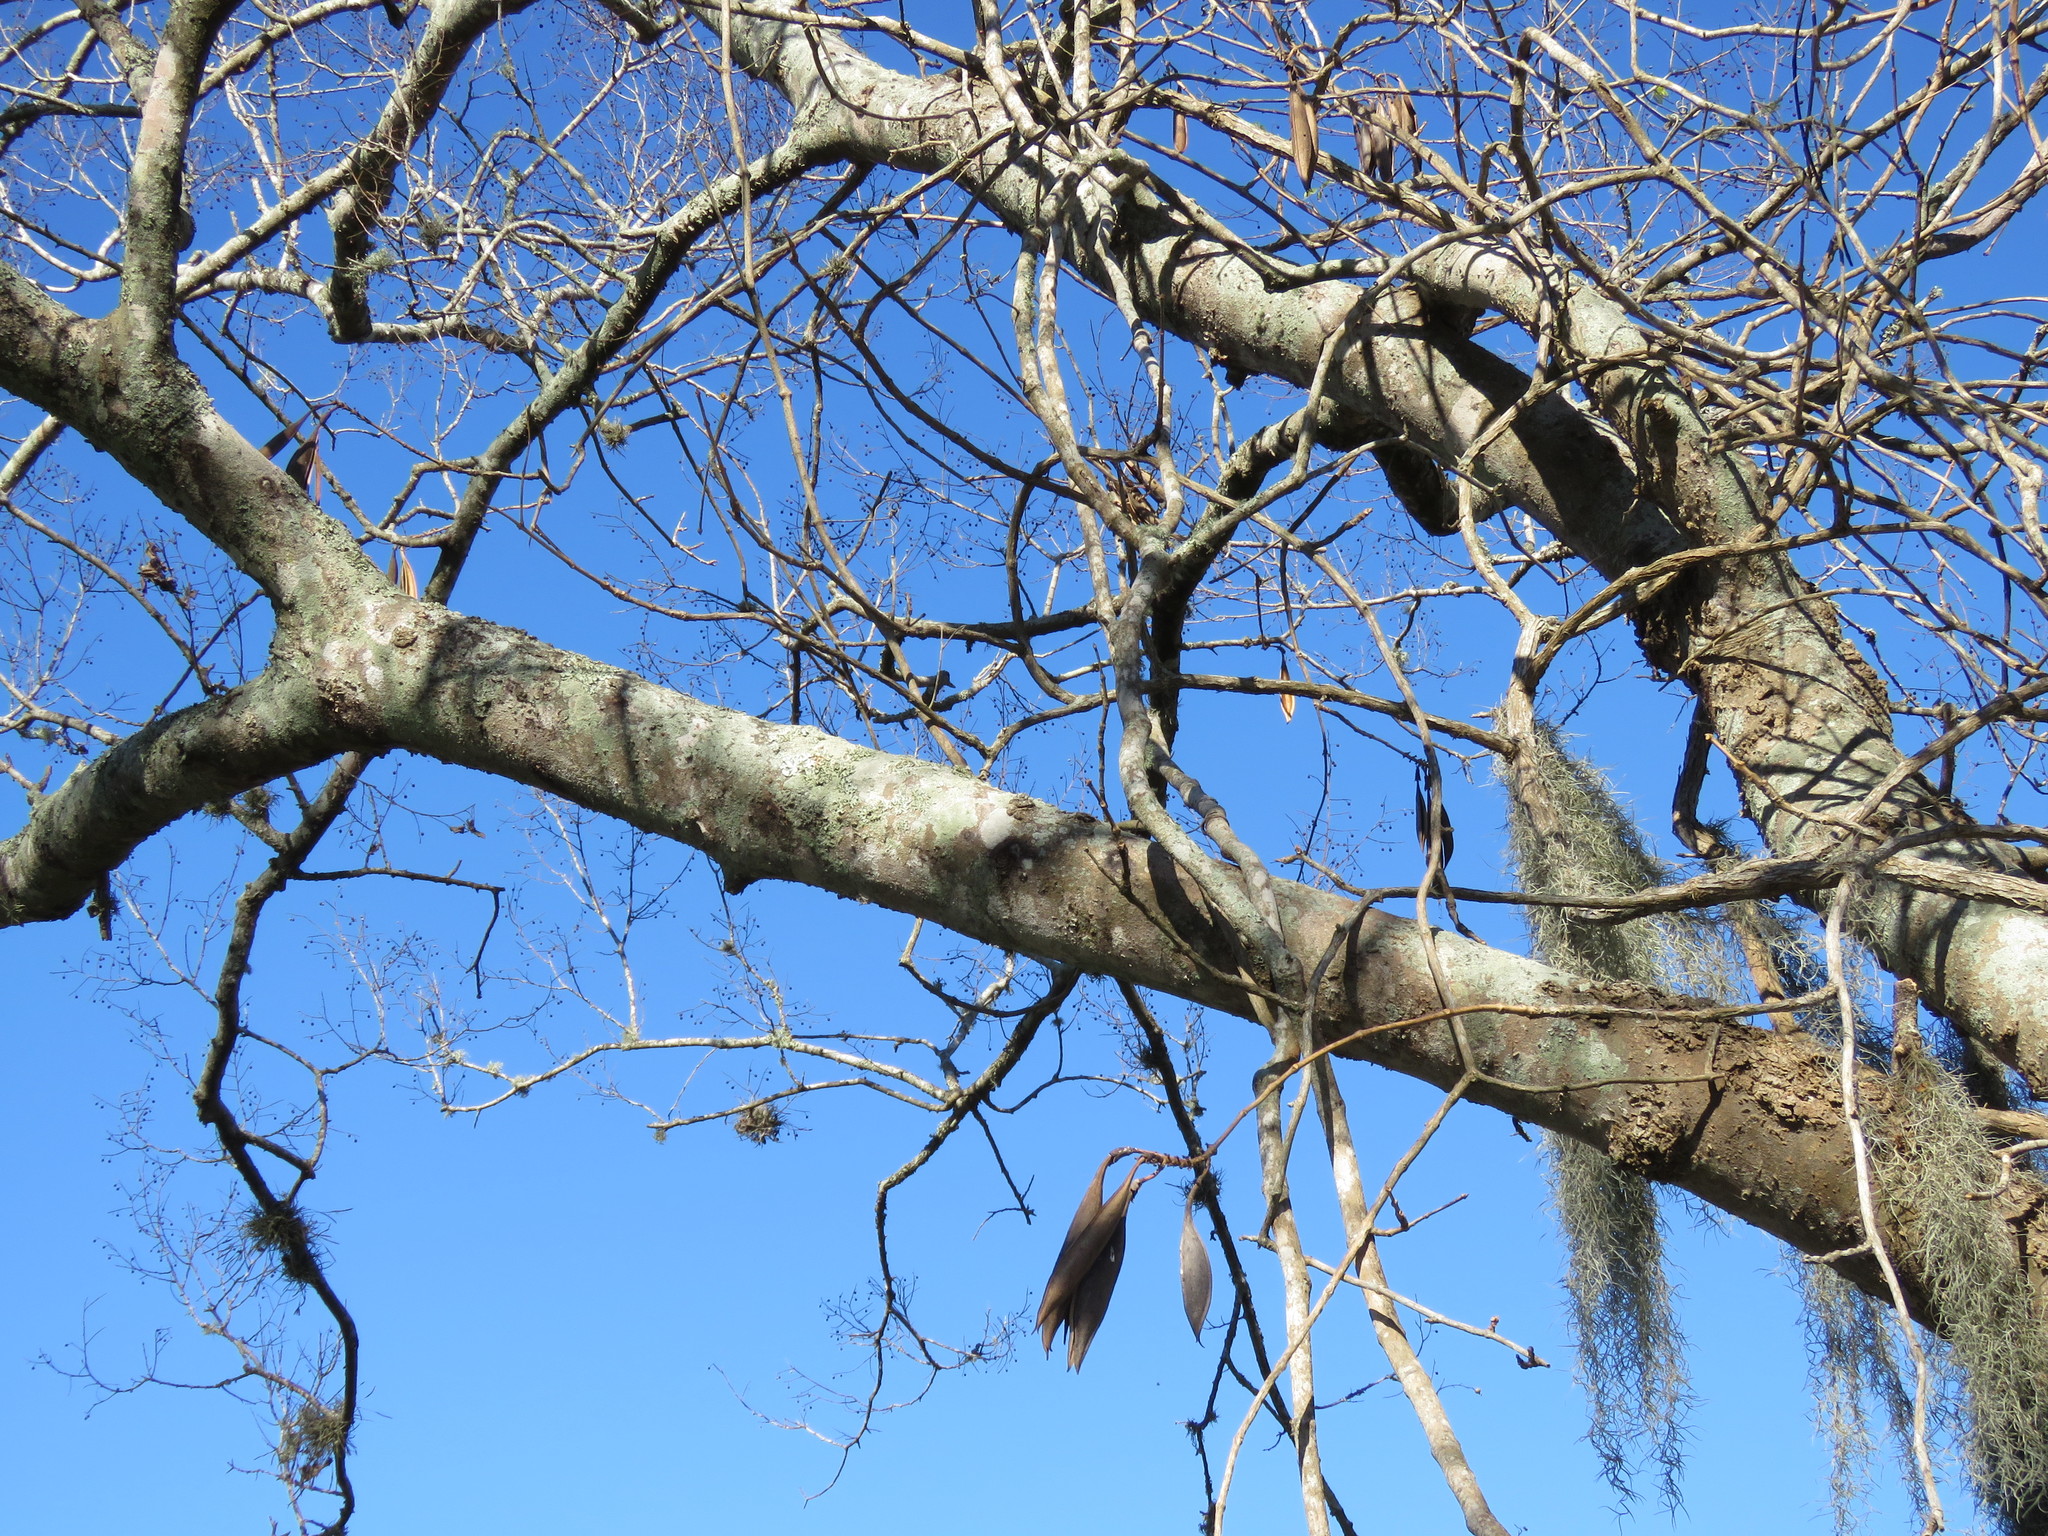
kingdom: Plantae
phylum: Tracheophyta
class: Magnoliopsida
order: Lamiales
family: Bignoniaceae
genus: Campsis
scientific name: Campsis radicans
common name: Trumpet-creeper
